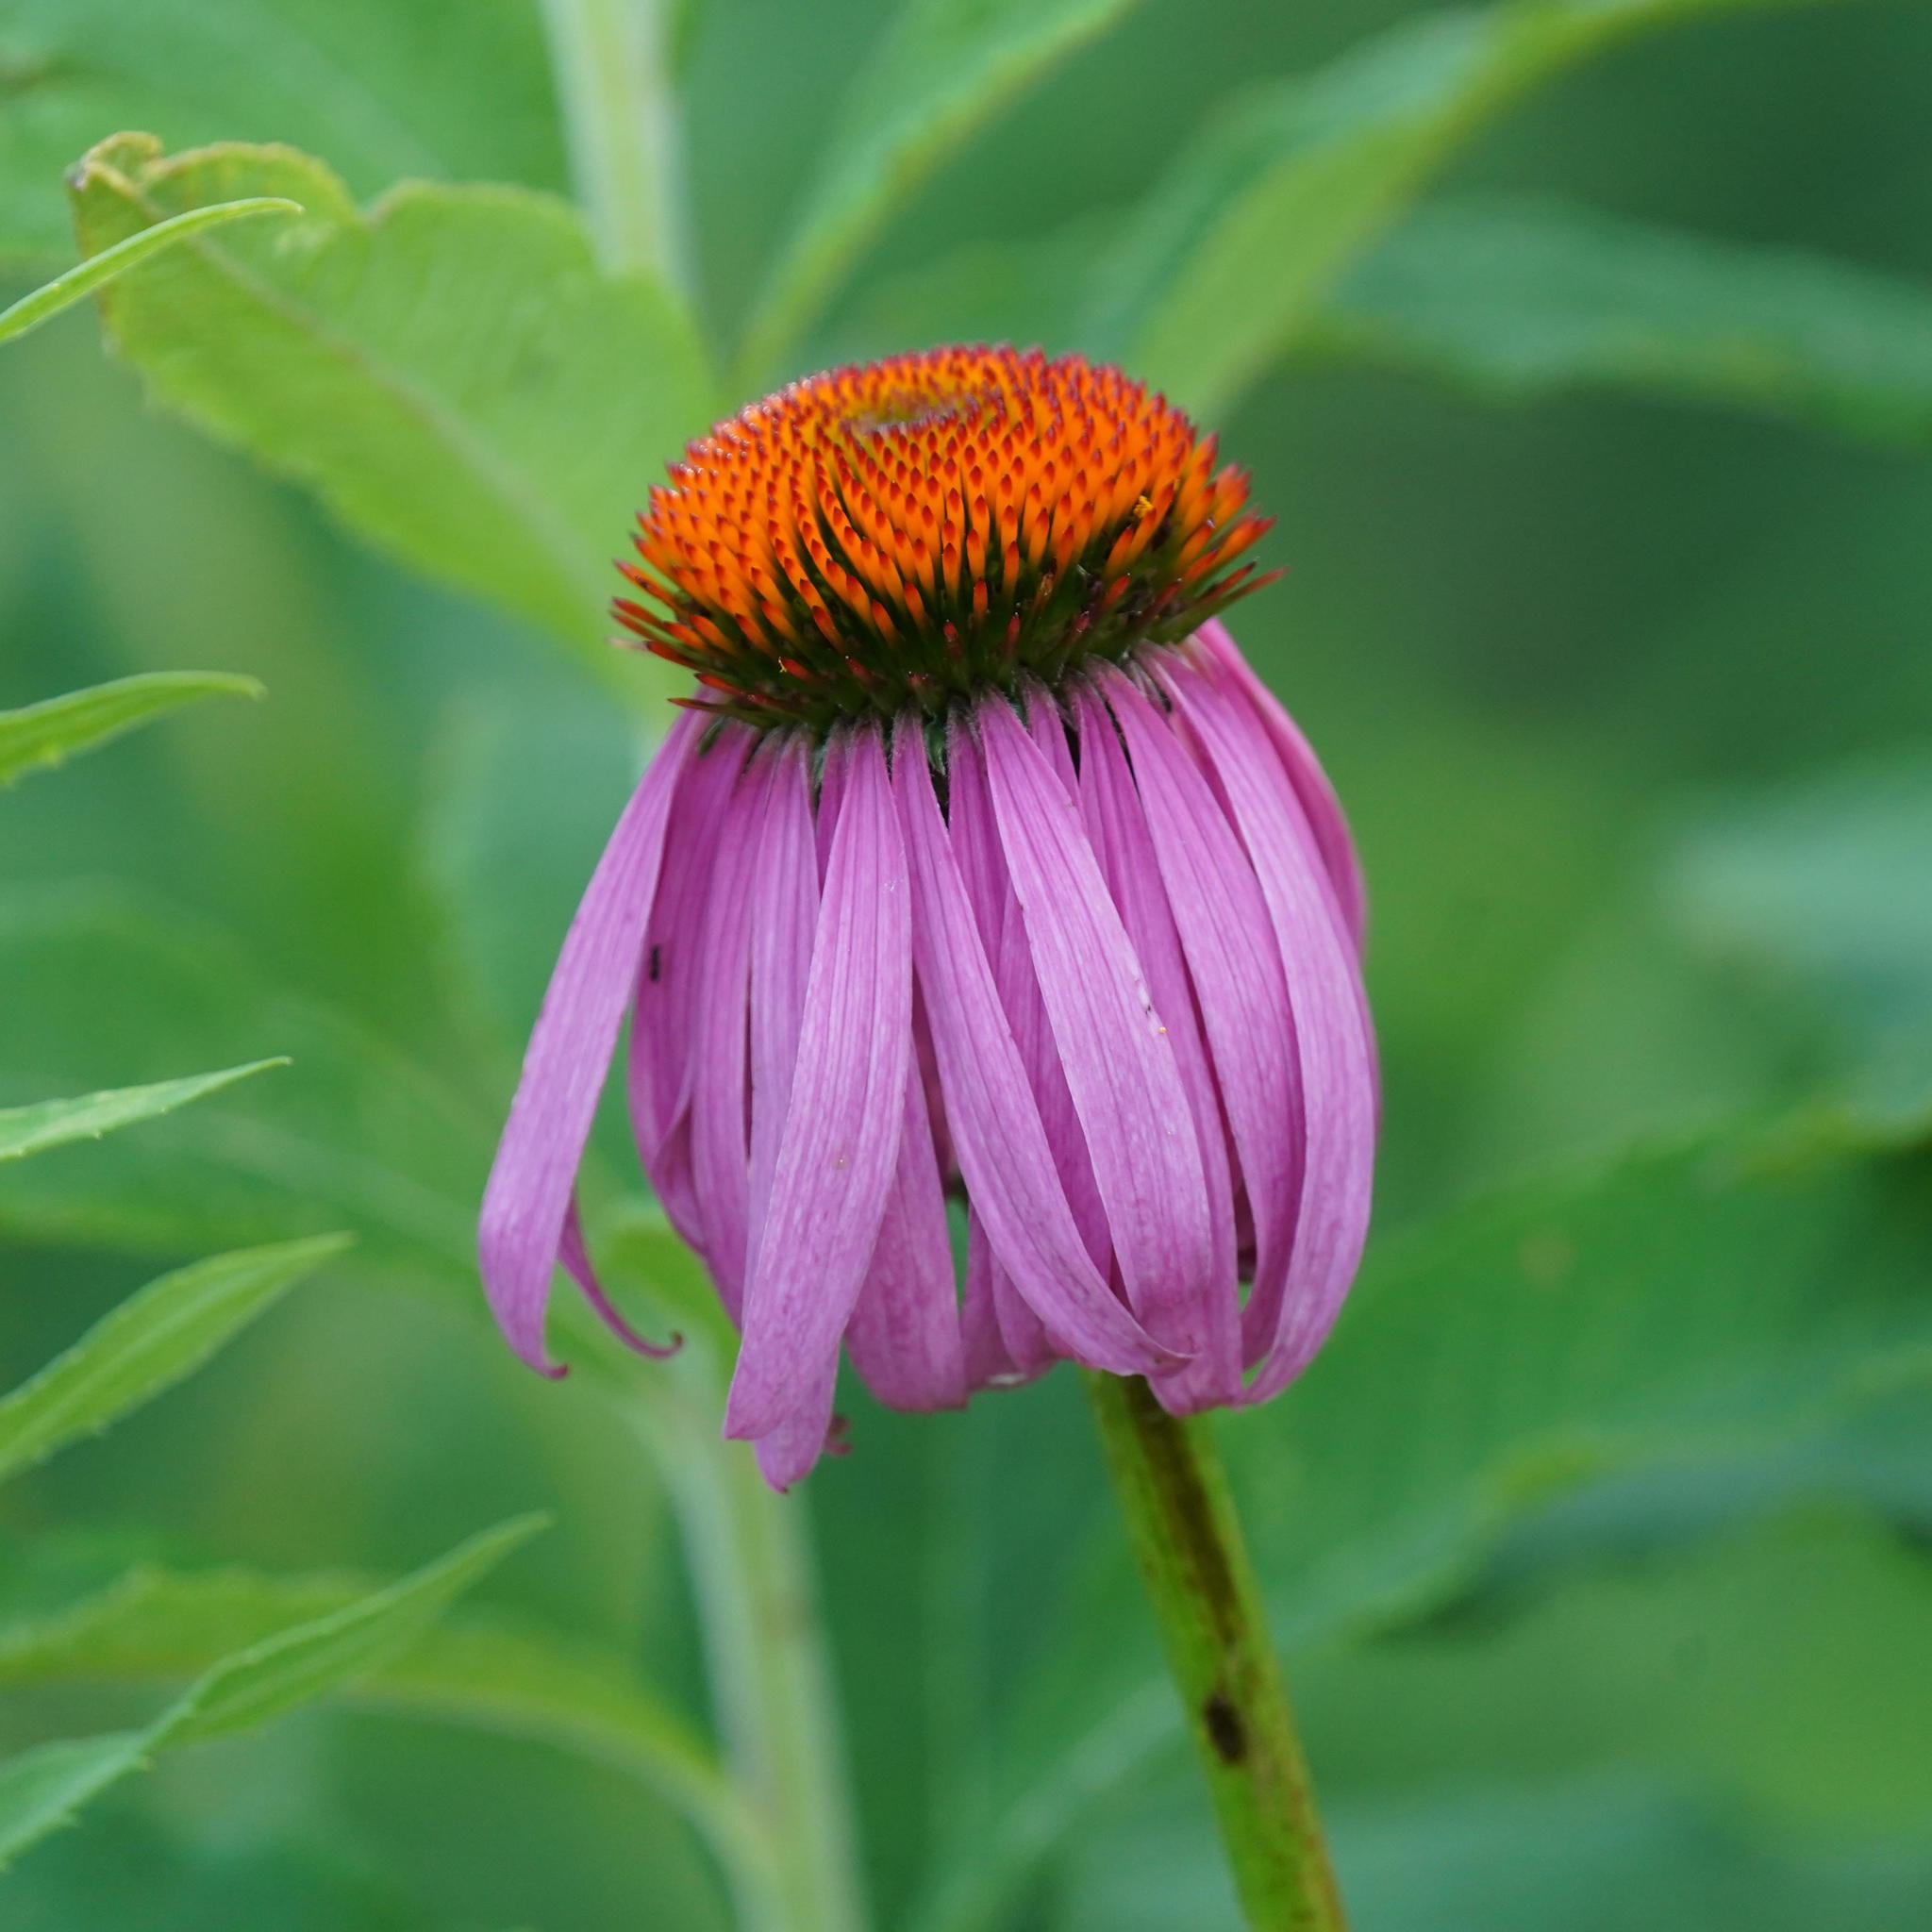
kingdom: Plantae
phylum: Tracheophyta
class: Magnoliopsida
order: Asterales
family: Asteraceae
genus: Echinacea
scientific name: Echinacea purpurea
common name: Broad-leaved purple coneflower
